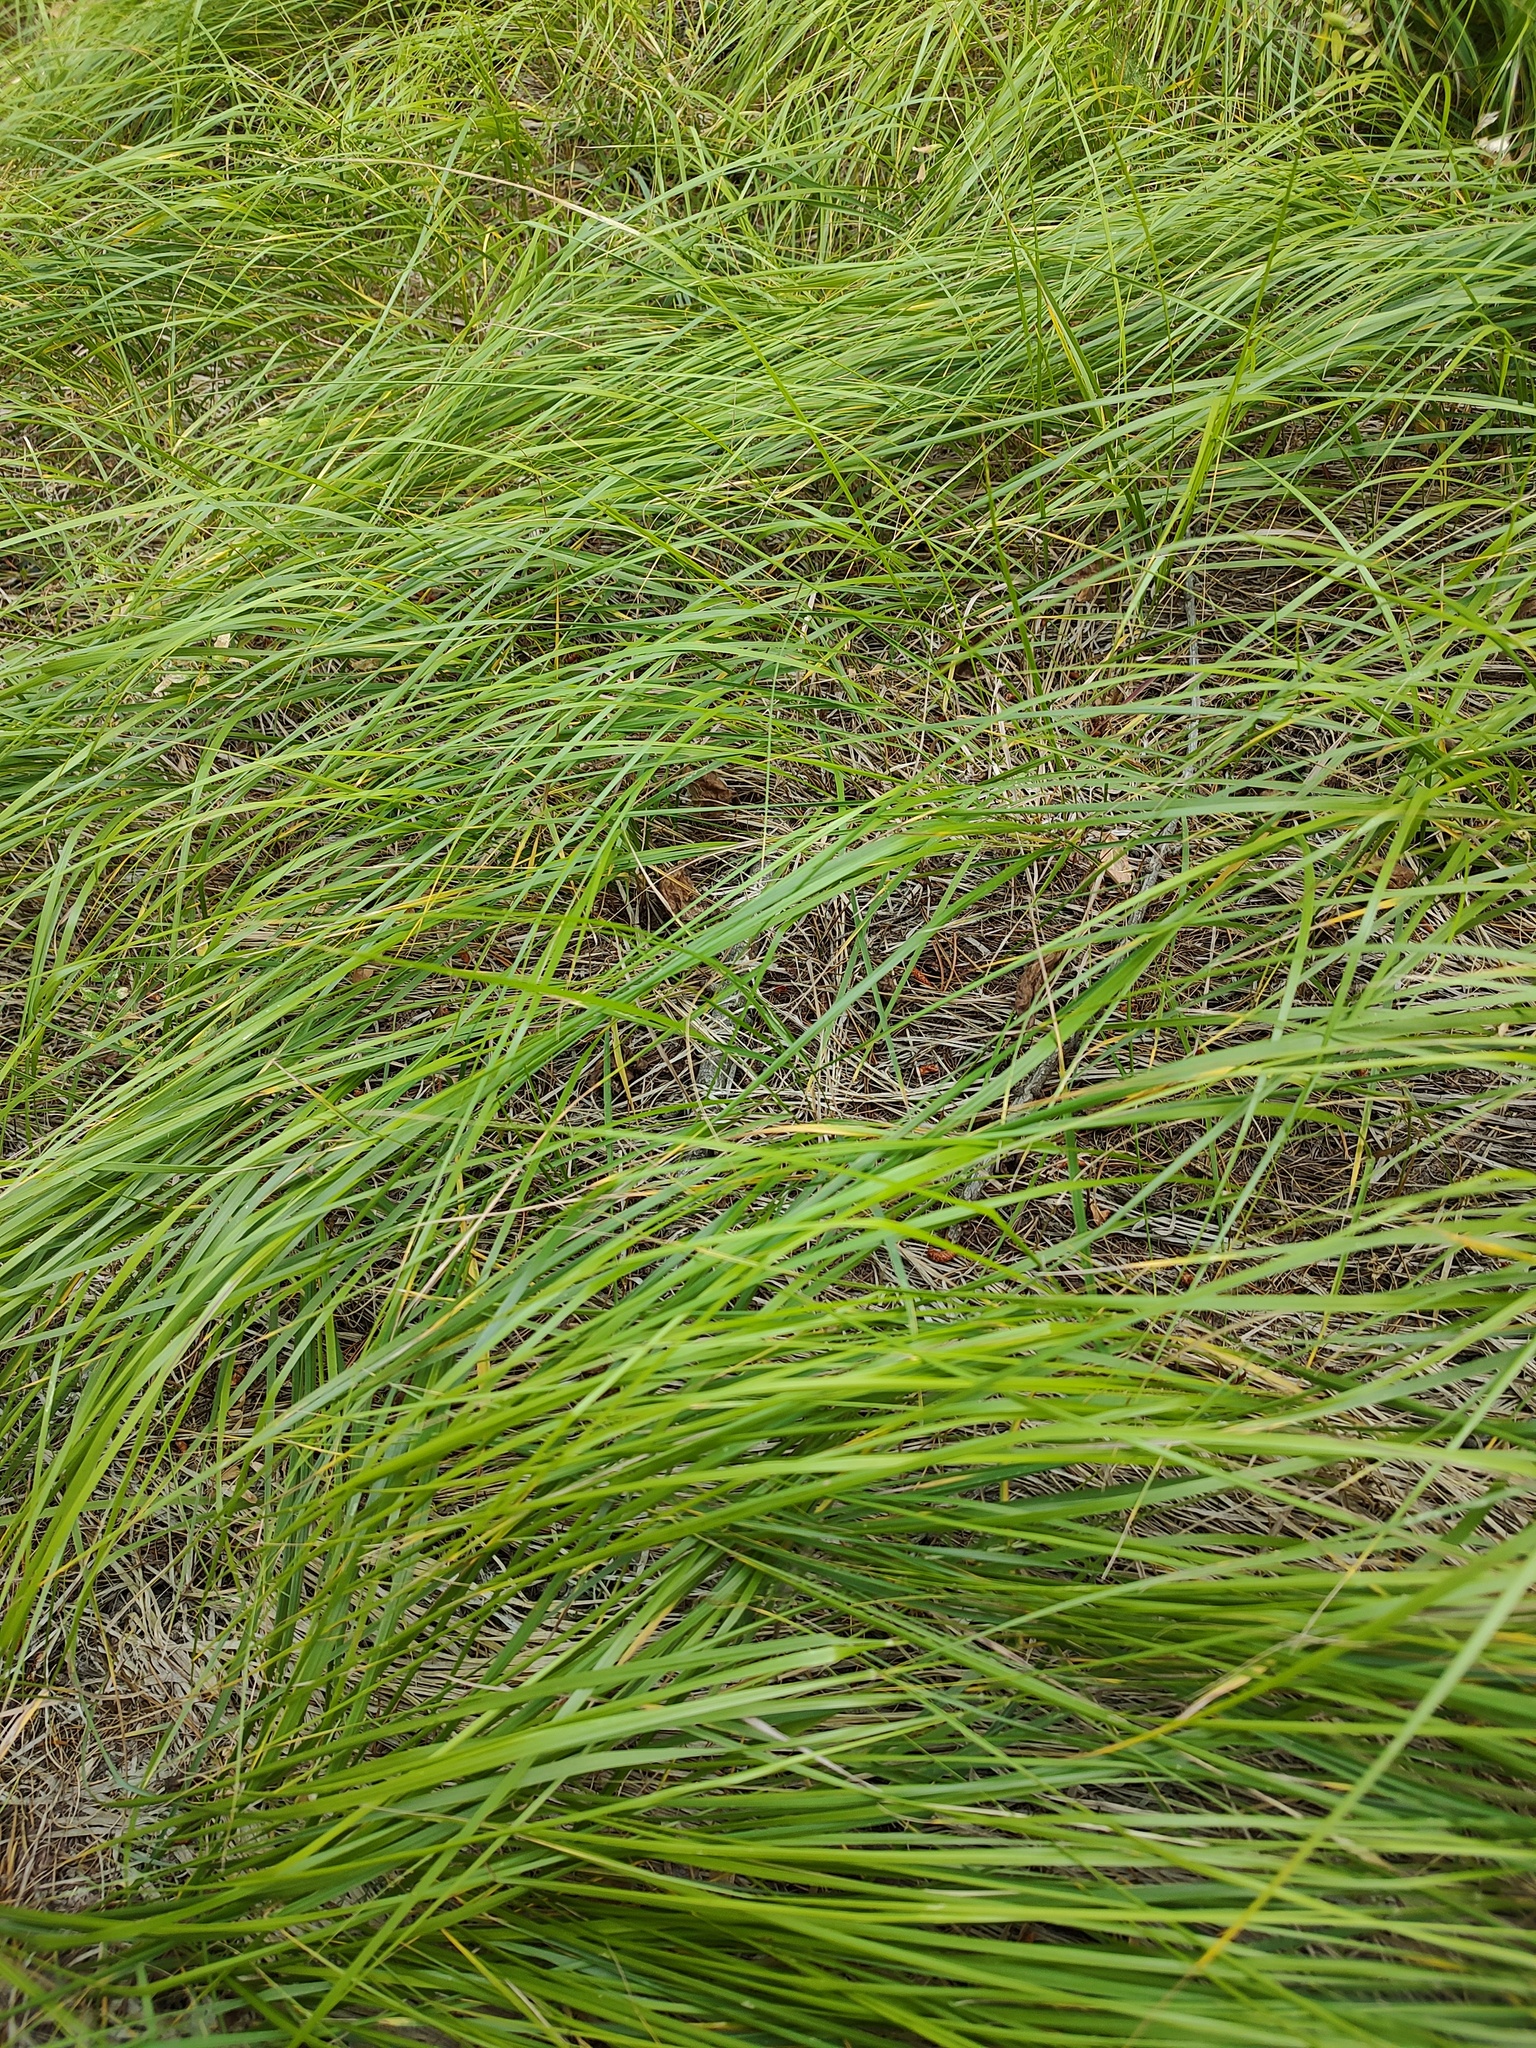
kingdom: Plantae
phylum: Tracheophyta
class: Liliopsida
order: Poales
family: Poaceae
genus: Calamagrostis
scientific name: Calamagrostis rubescens
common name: Pine grass
